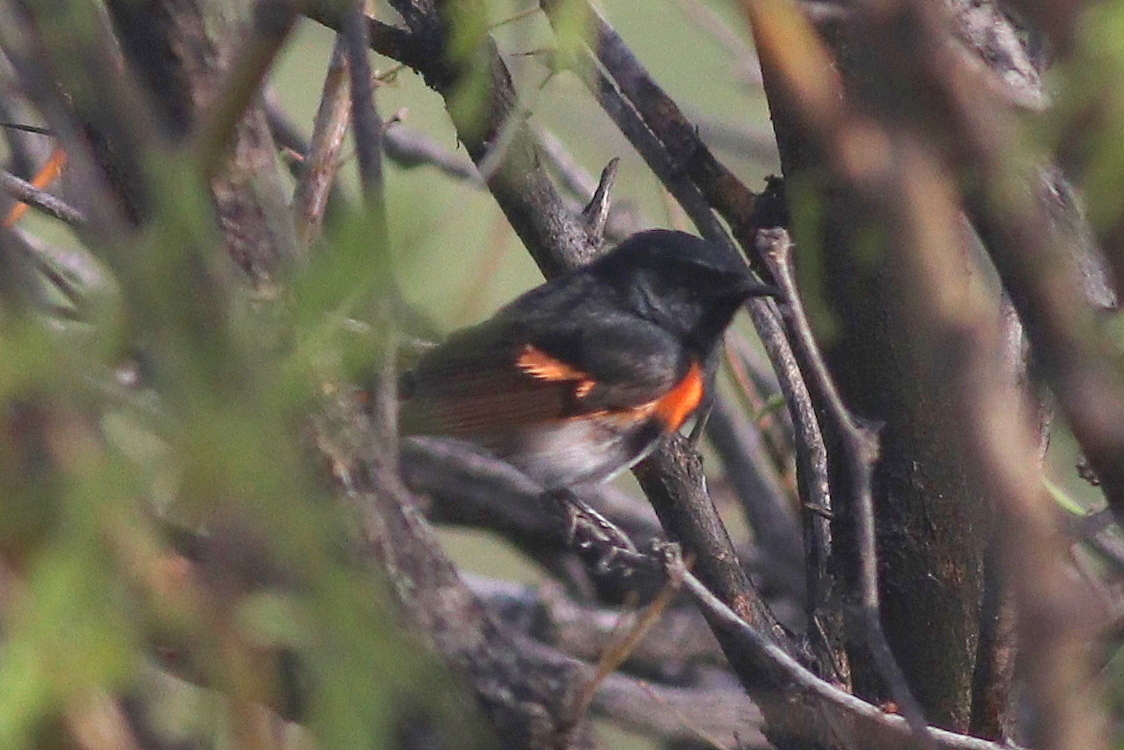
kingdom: Animalia
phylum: Chordata
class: Aves
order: Passeriformes
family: Parulidae
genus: Setophaga
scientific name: Setophaga ruticilla
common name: American redstart
